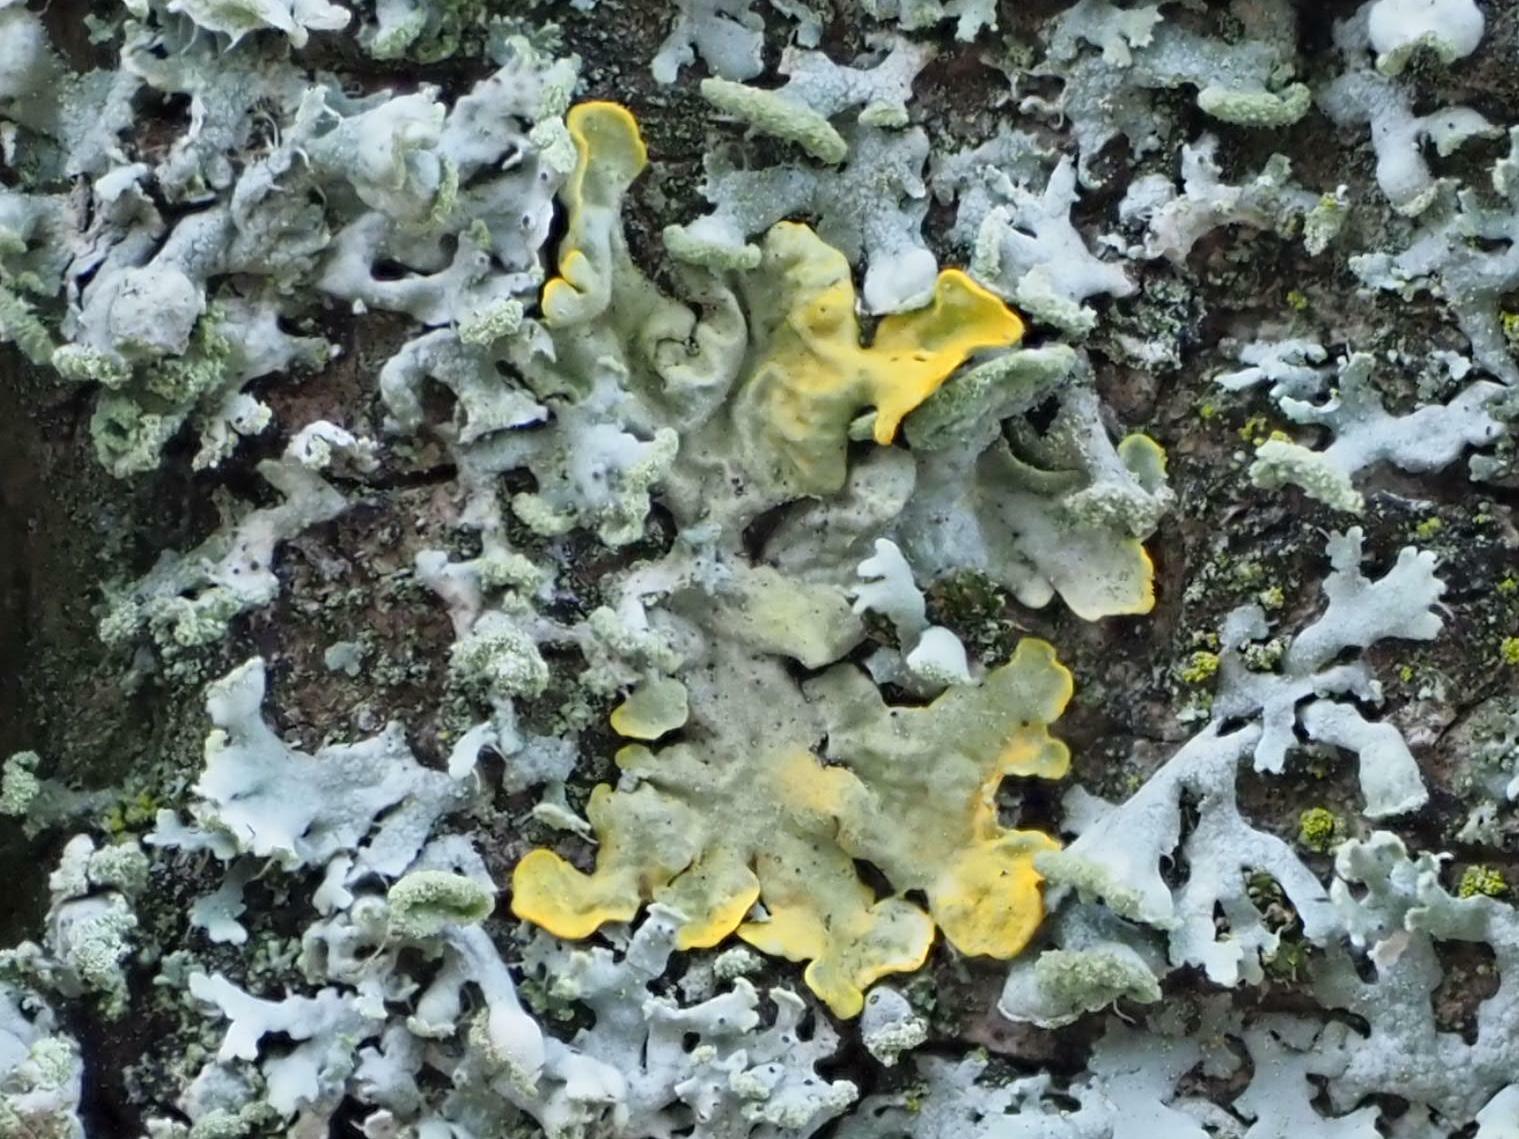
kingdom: Fungi
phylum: Ascomycota
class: Lecanoromycetes
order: Teloschistales
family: Teloschistaceae
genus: Xanthoria
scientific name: Xanthoria parietina
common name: Common orange lichen
